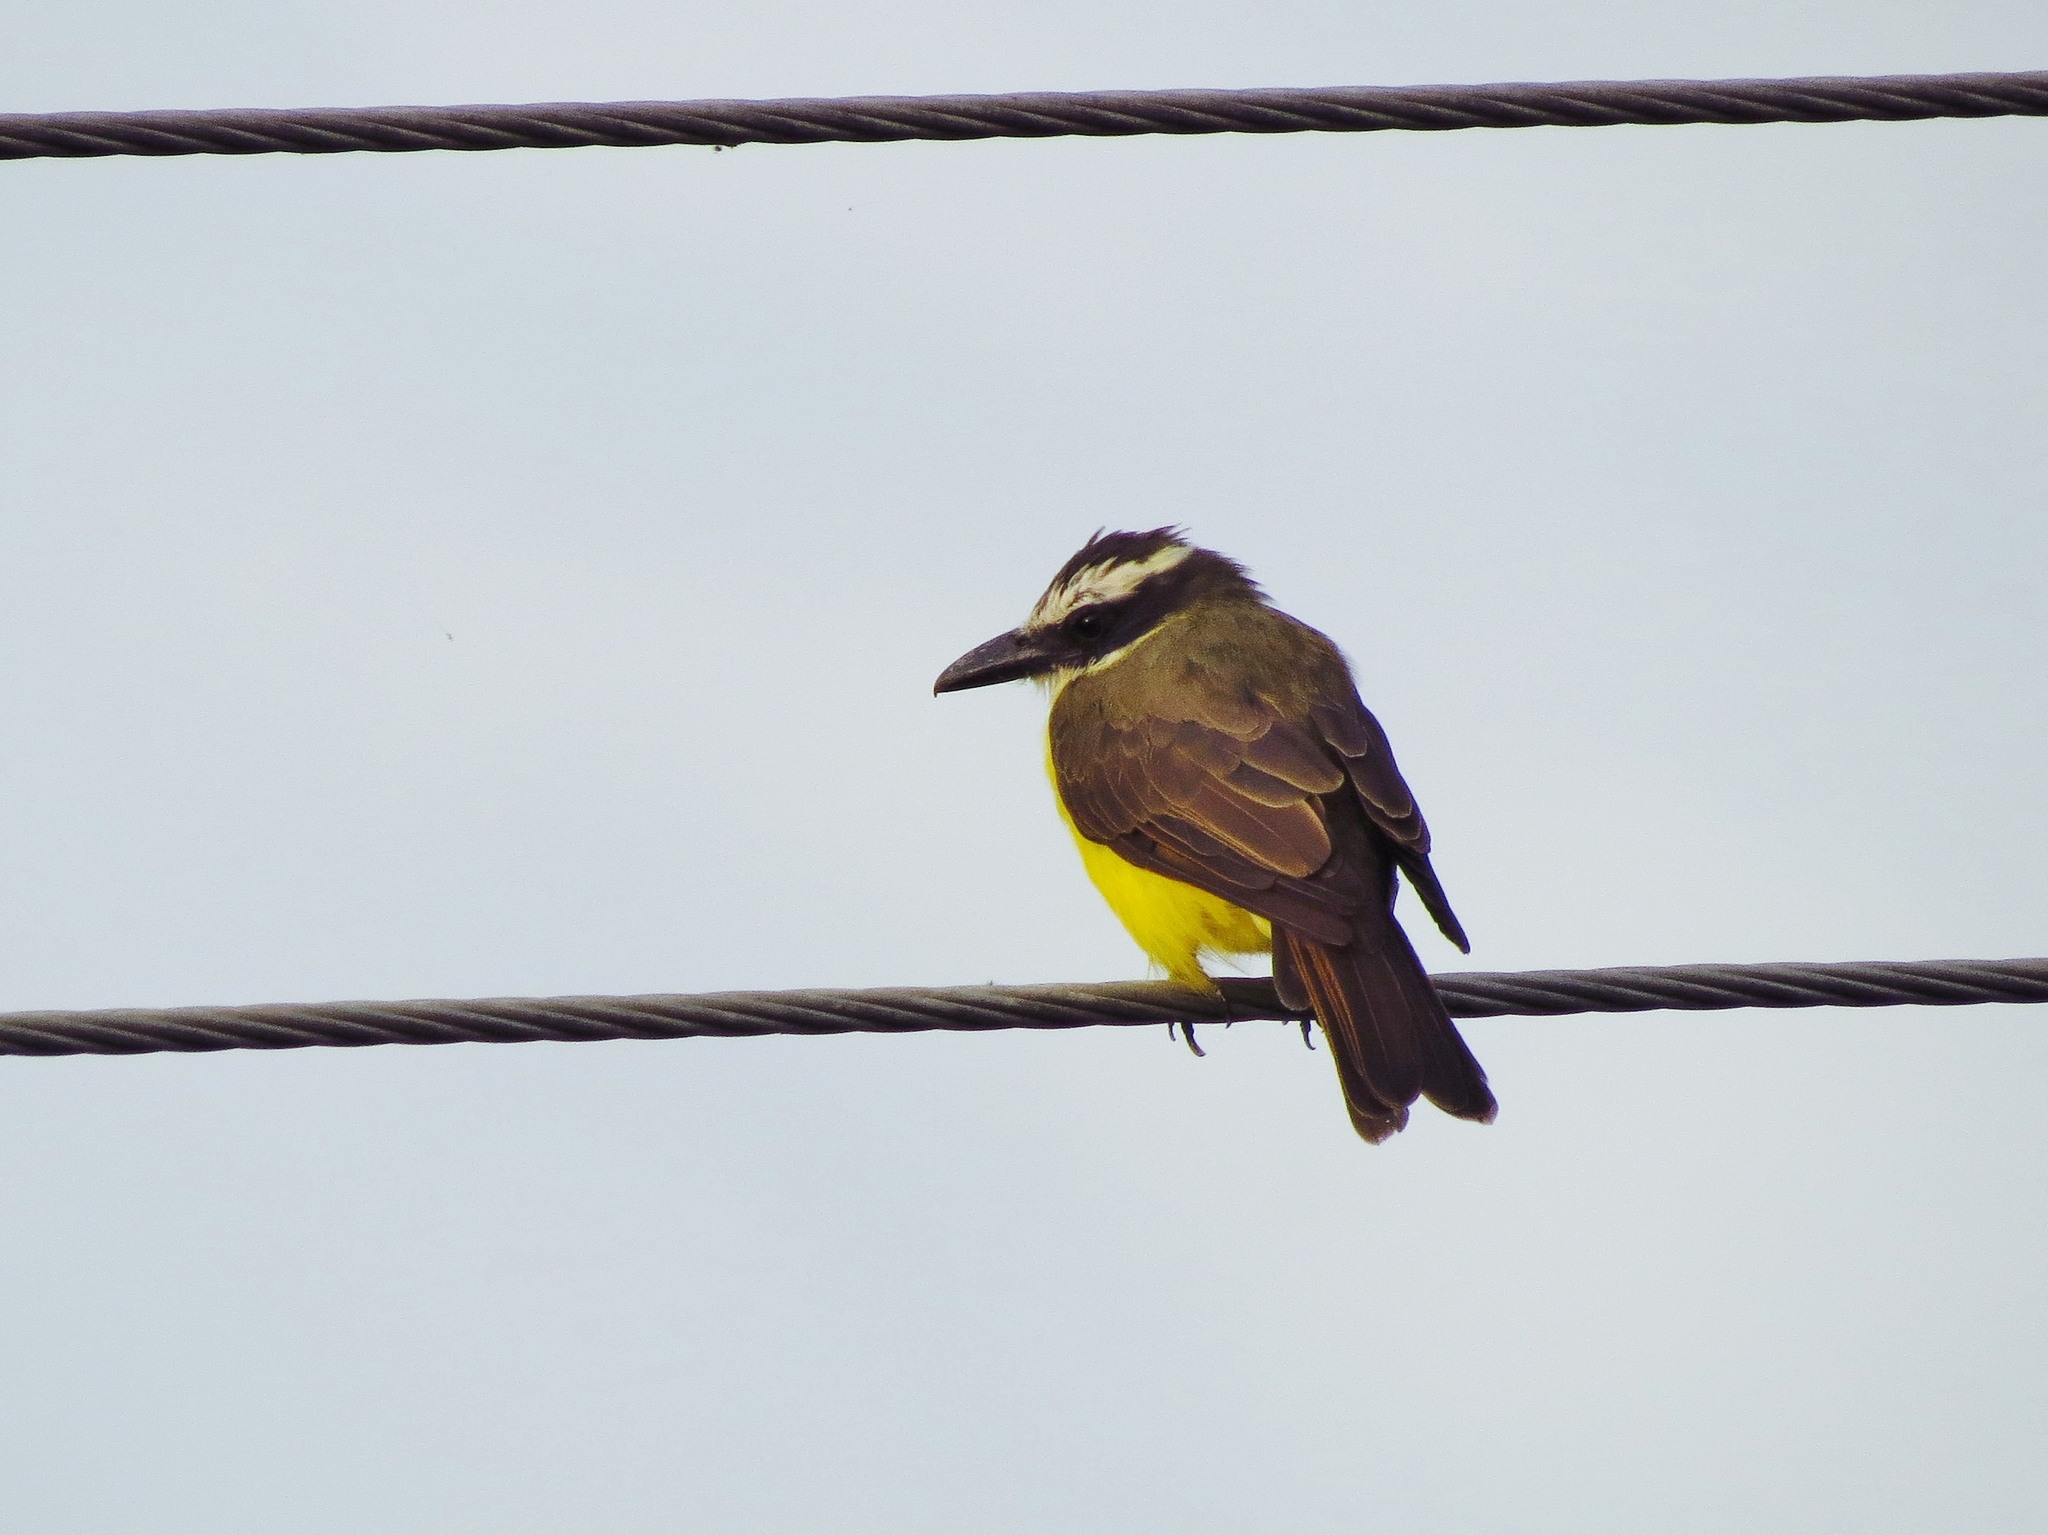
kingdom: Animalia
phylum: Chordata
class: Aves
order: Passeriformes
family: Tyrannidae
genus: Megarynchus
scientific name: Megarynchus pitangua
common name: Boat-billed flycatcher
